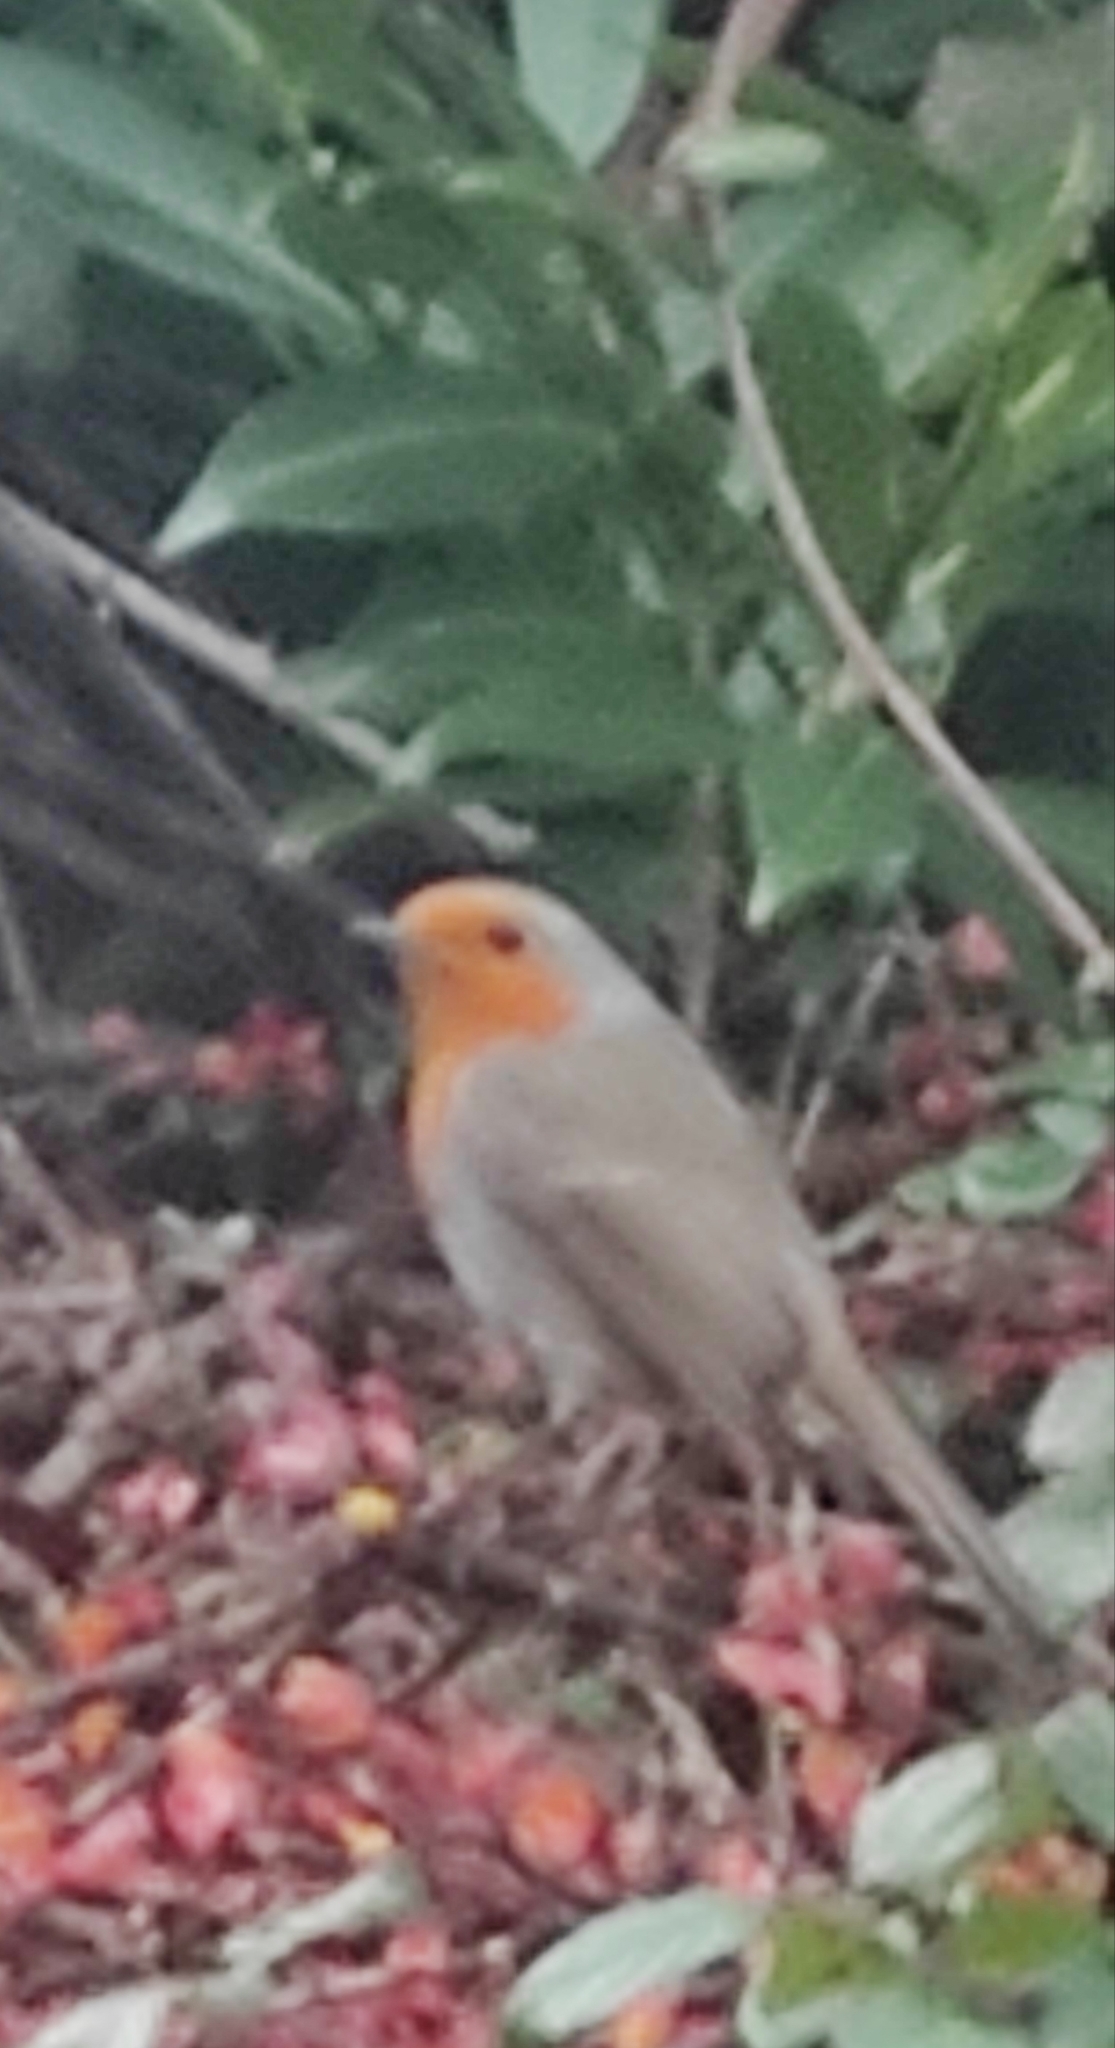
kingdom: Animalia
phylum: Chordata
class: Aves
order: Passeriformes
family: Muscicapidae
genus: Erithacus
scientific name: Erithacus rubecula
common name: European robin
